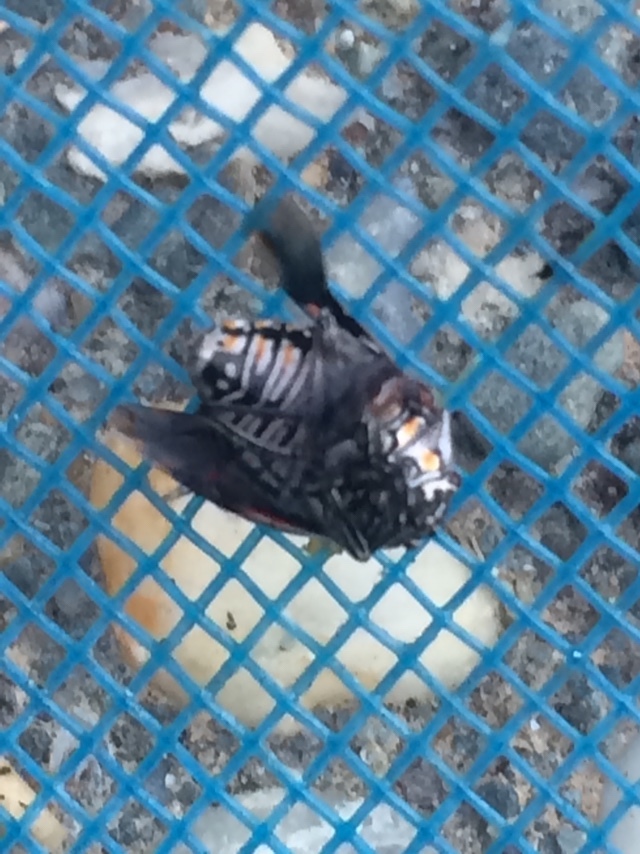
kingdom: Animalia
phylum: Arthropoda
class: Insecta
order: Hemiptera
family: Pentatomidae
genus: Bagrada
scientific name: Bagrada hilaris
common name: Bagrada bug
